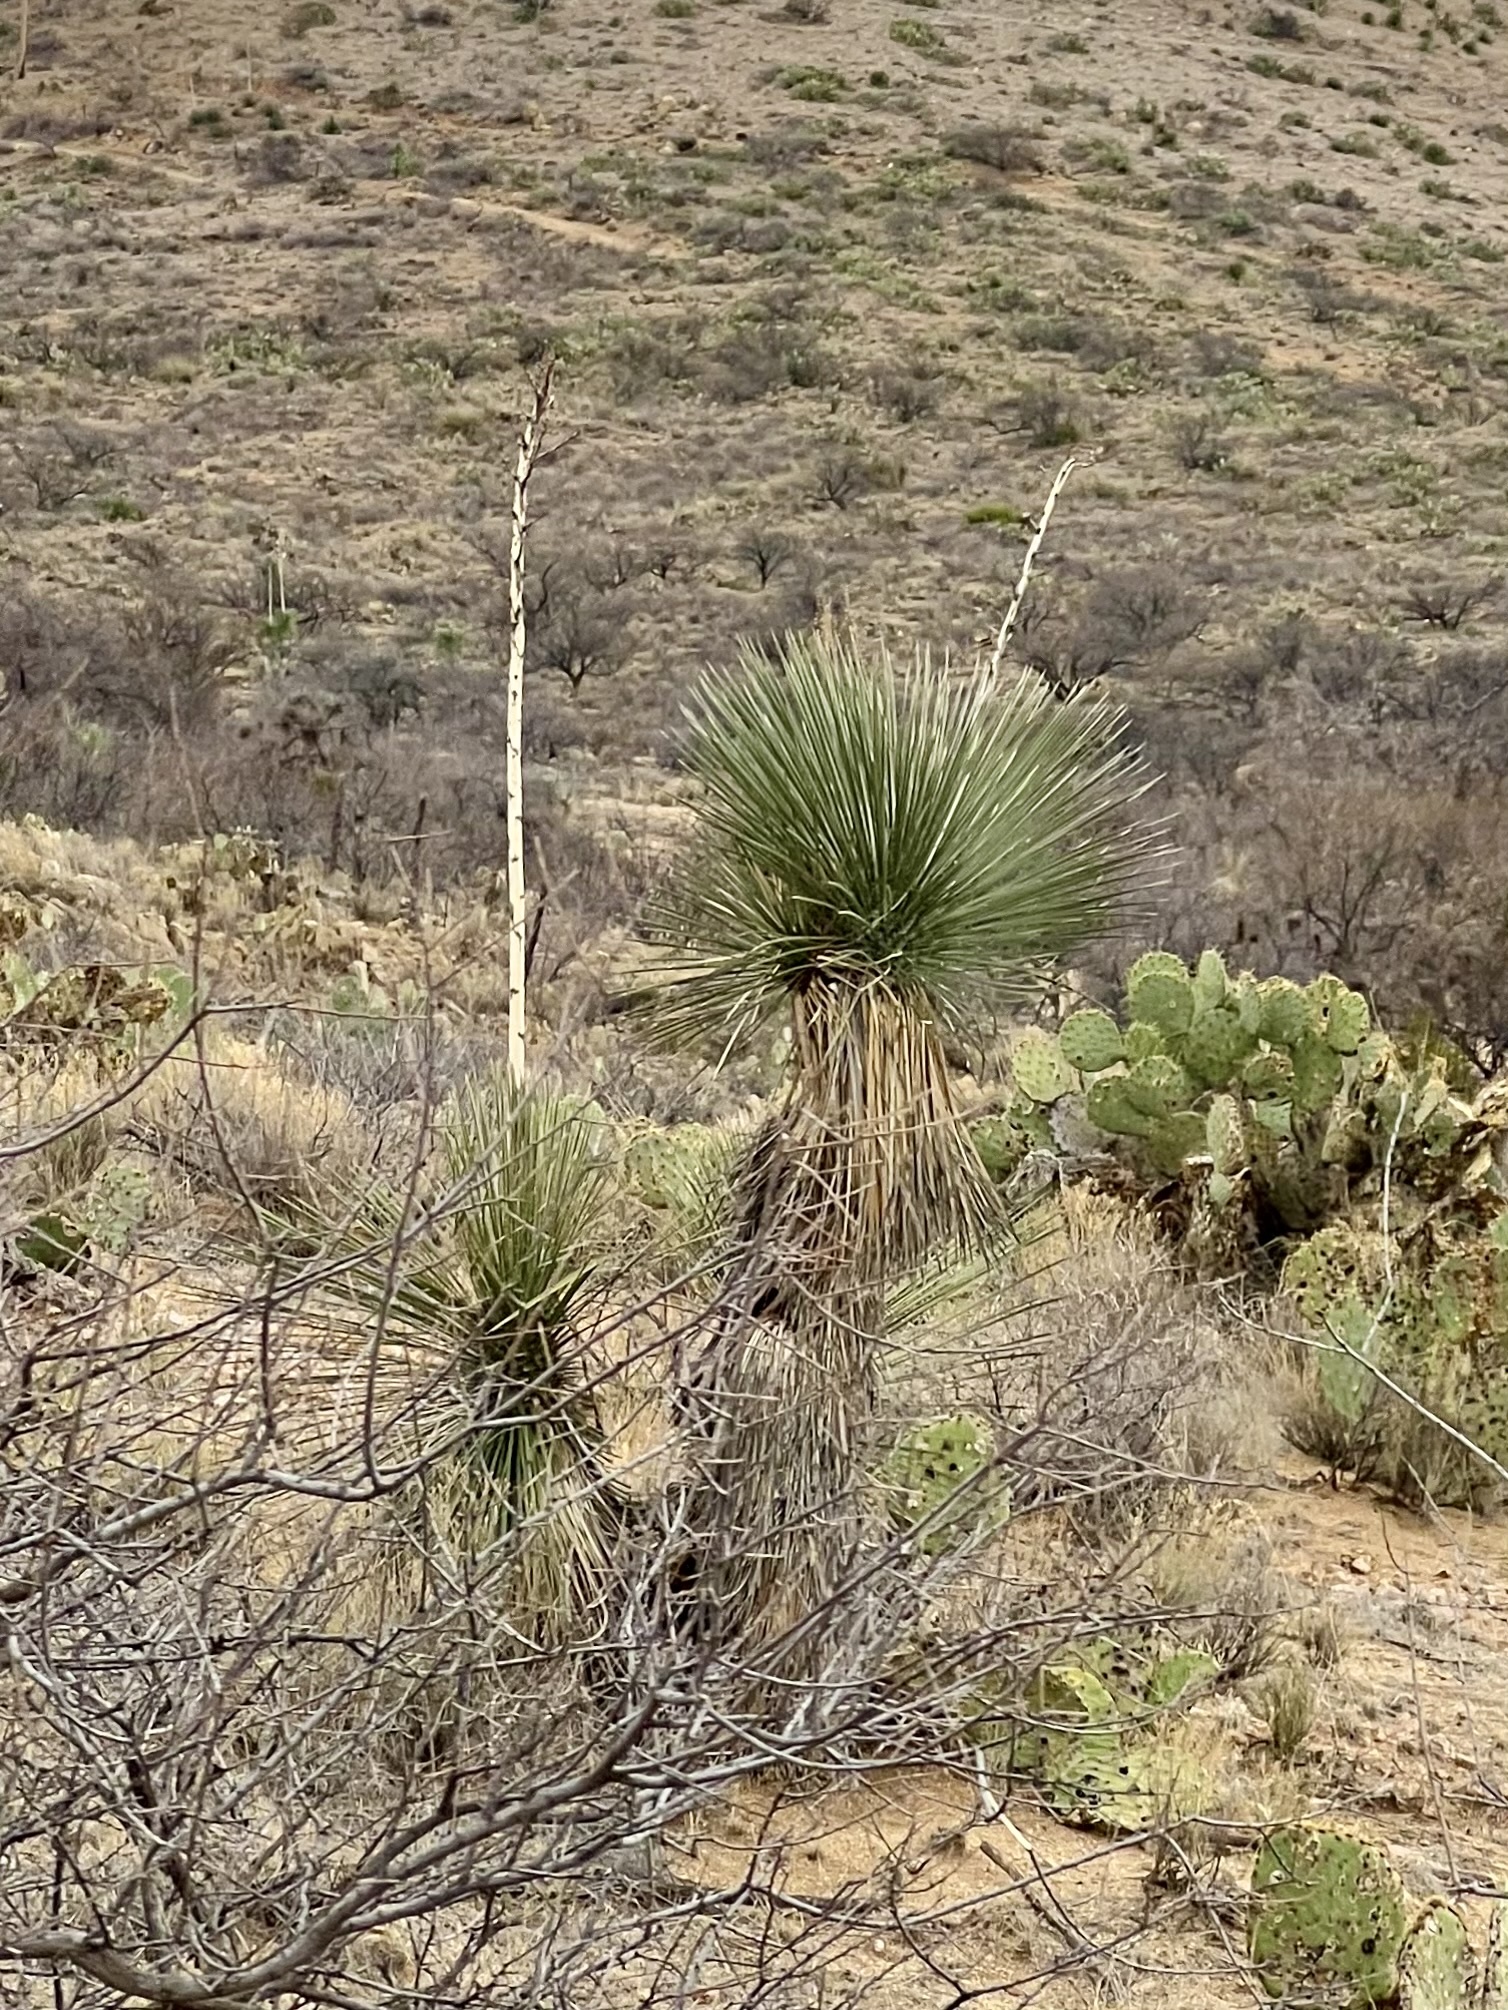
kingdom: Plantae
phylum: Tracheophyta
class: Liliopsida
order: Asparagales
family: Asparagaceae
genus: Yucca
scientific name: Yucca elata
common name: Palmella
